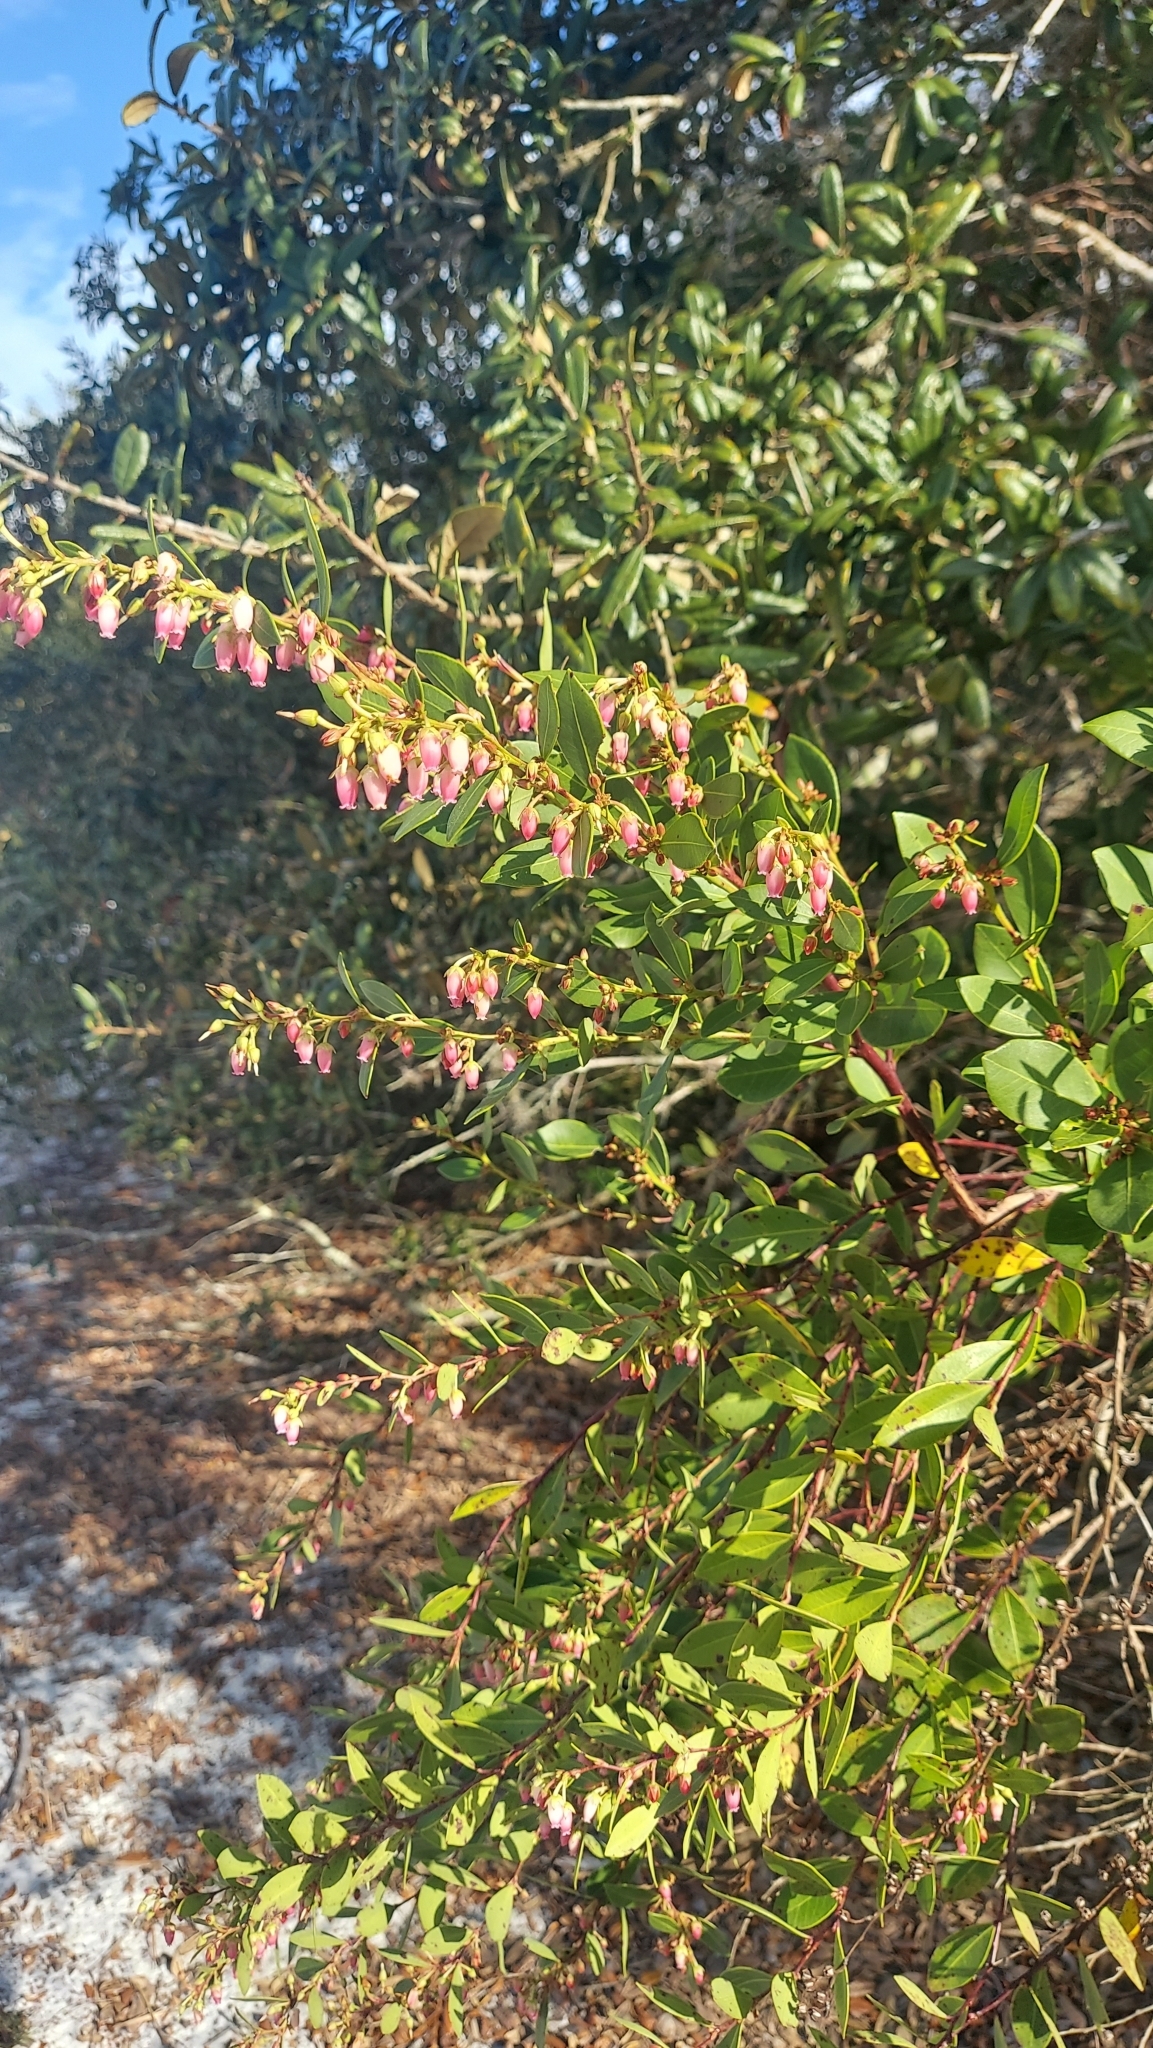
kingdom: Plantae
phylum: Tracheophyta
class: Magnoliopsida
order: Ericales
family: Ericaceae
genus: Lyonia
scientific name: Lyonia lucida
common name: Fetterbush
